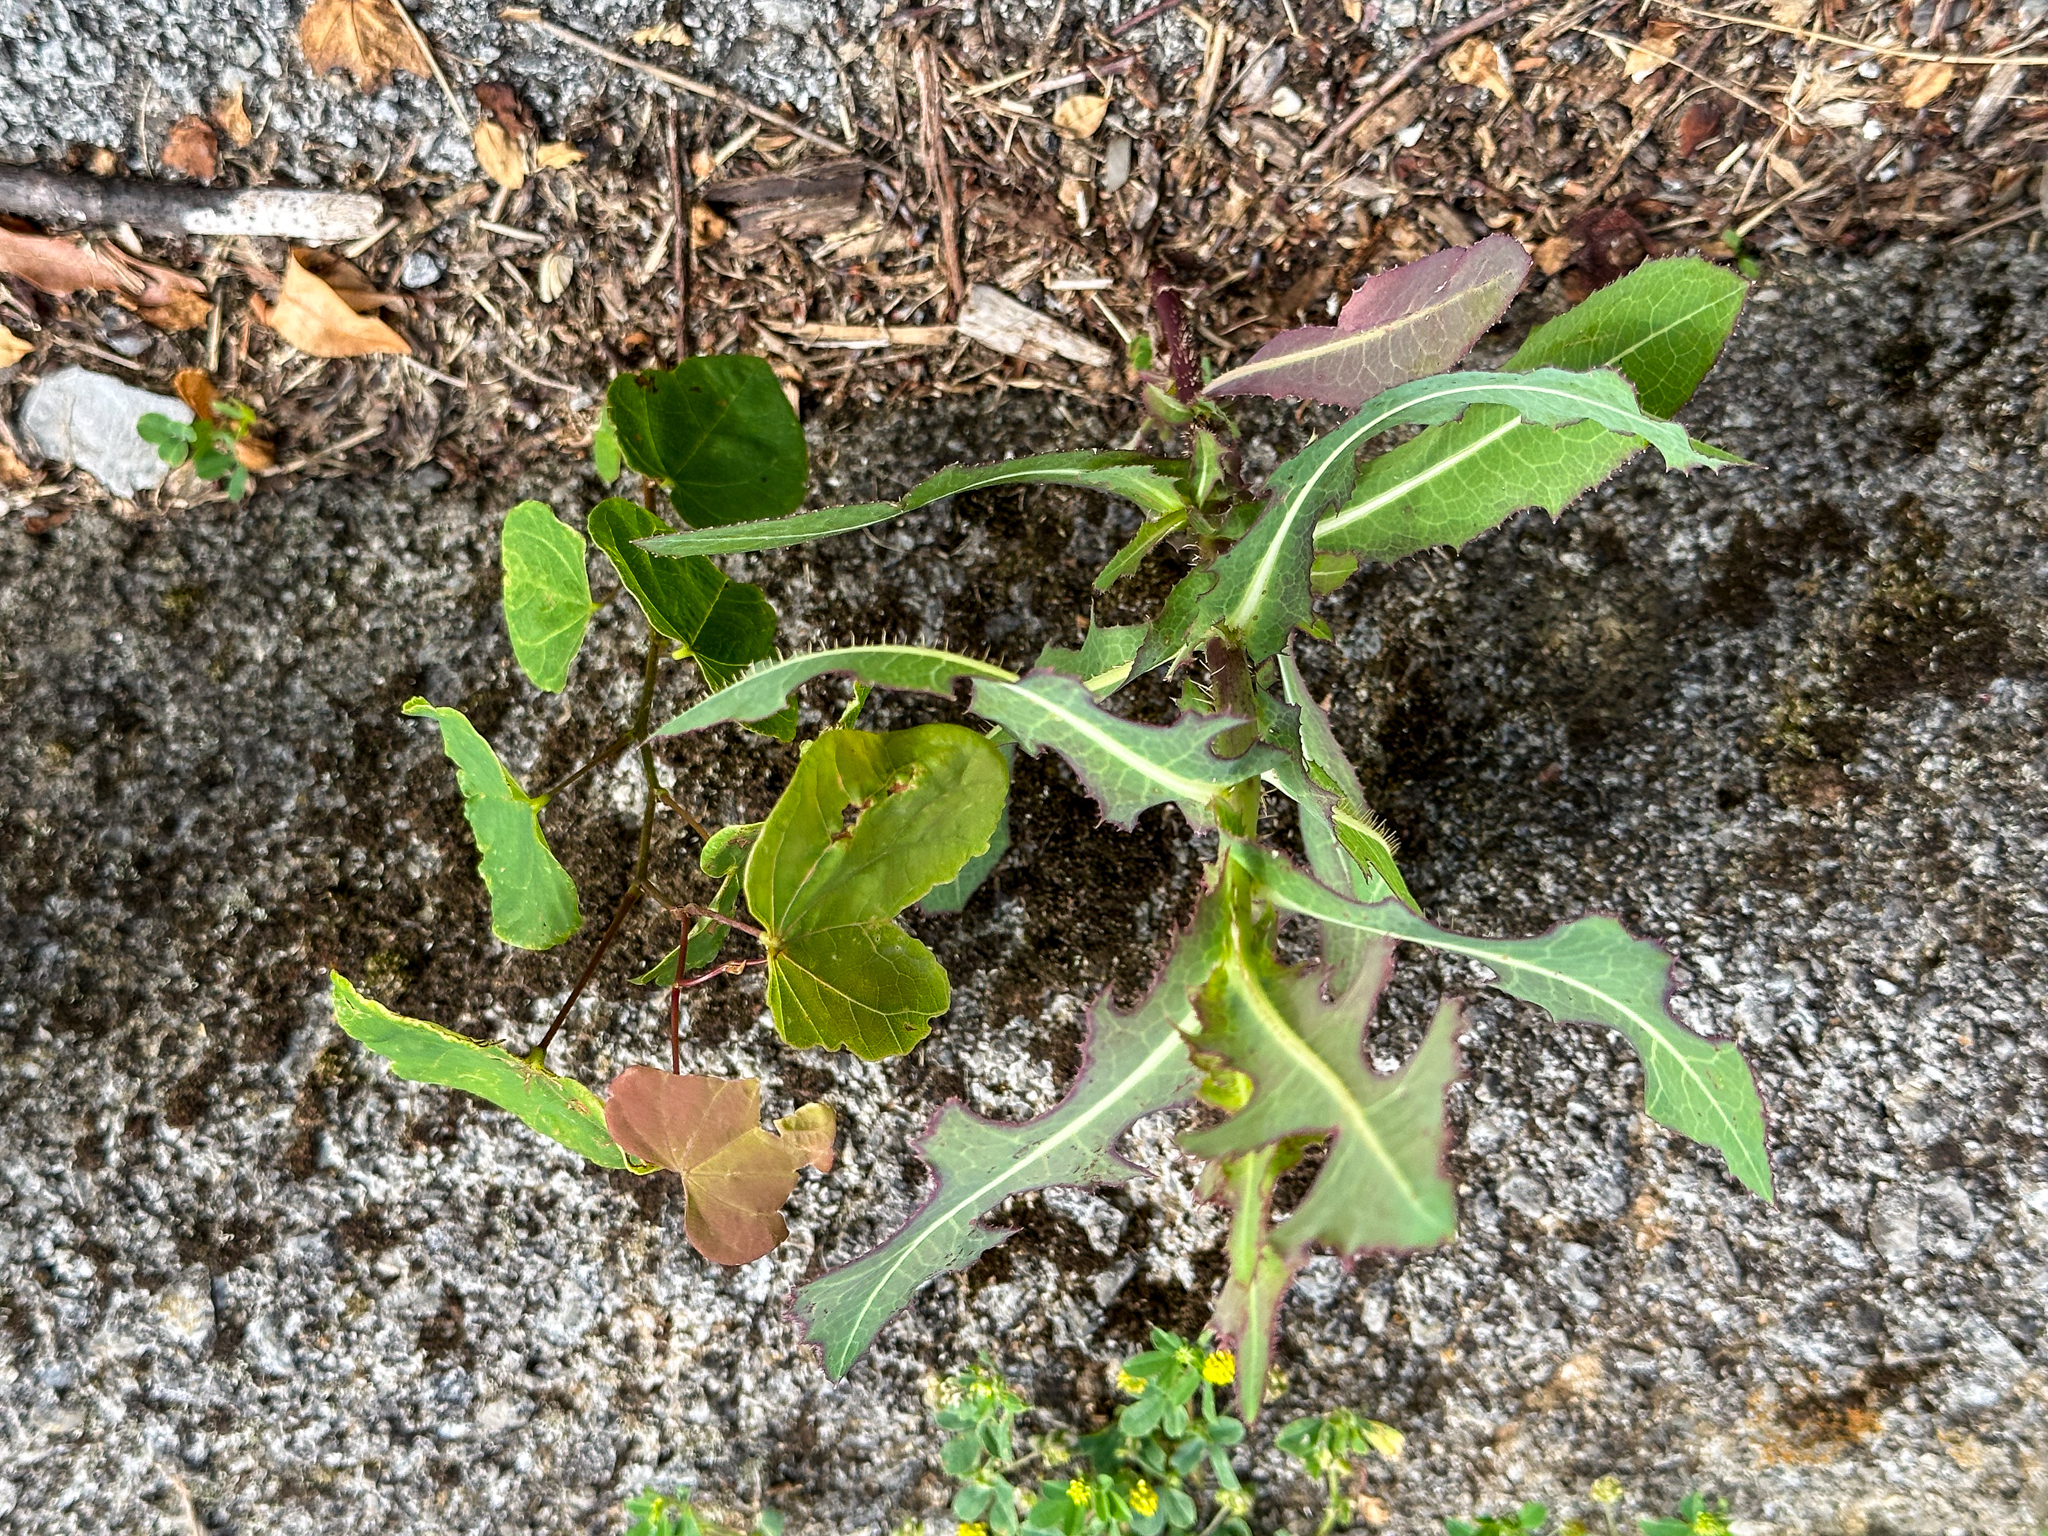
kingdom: Plantae
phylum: Tracheophyta
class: Magnoliopsida
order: Asterales
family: Asteraceae
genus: Lactuca
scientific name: Lactuca serriola
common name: Prickly lettuce
